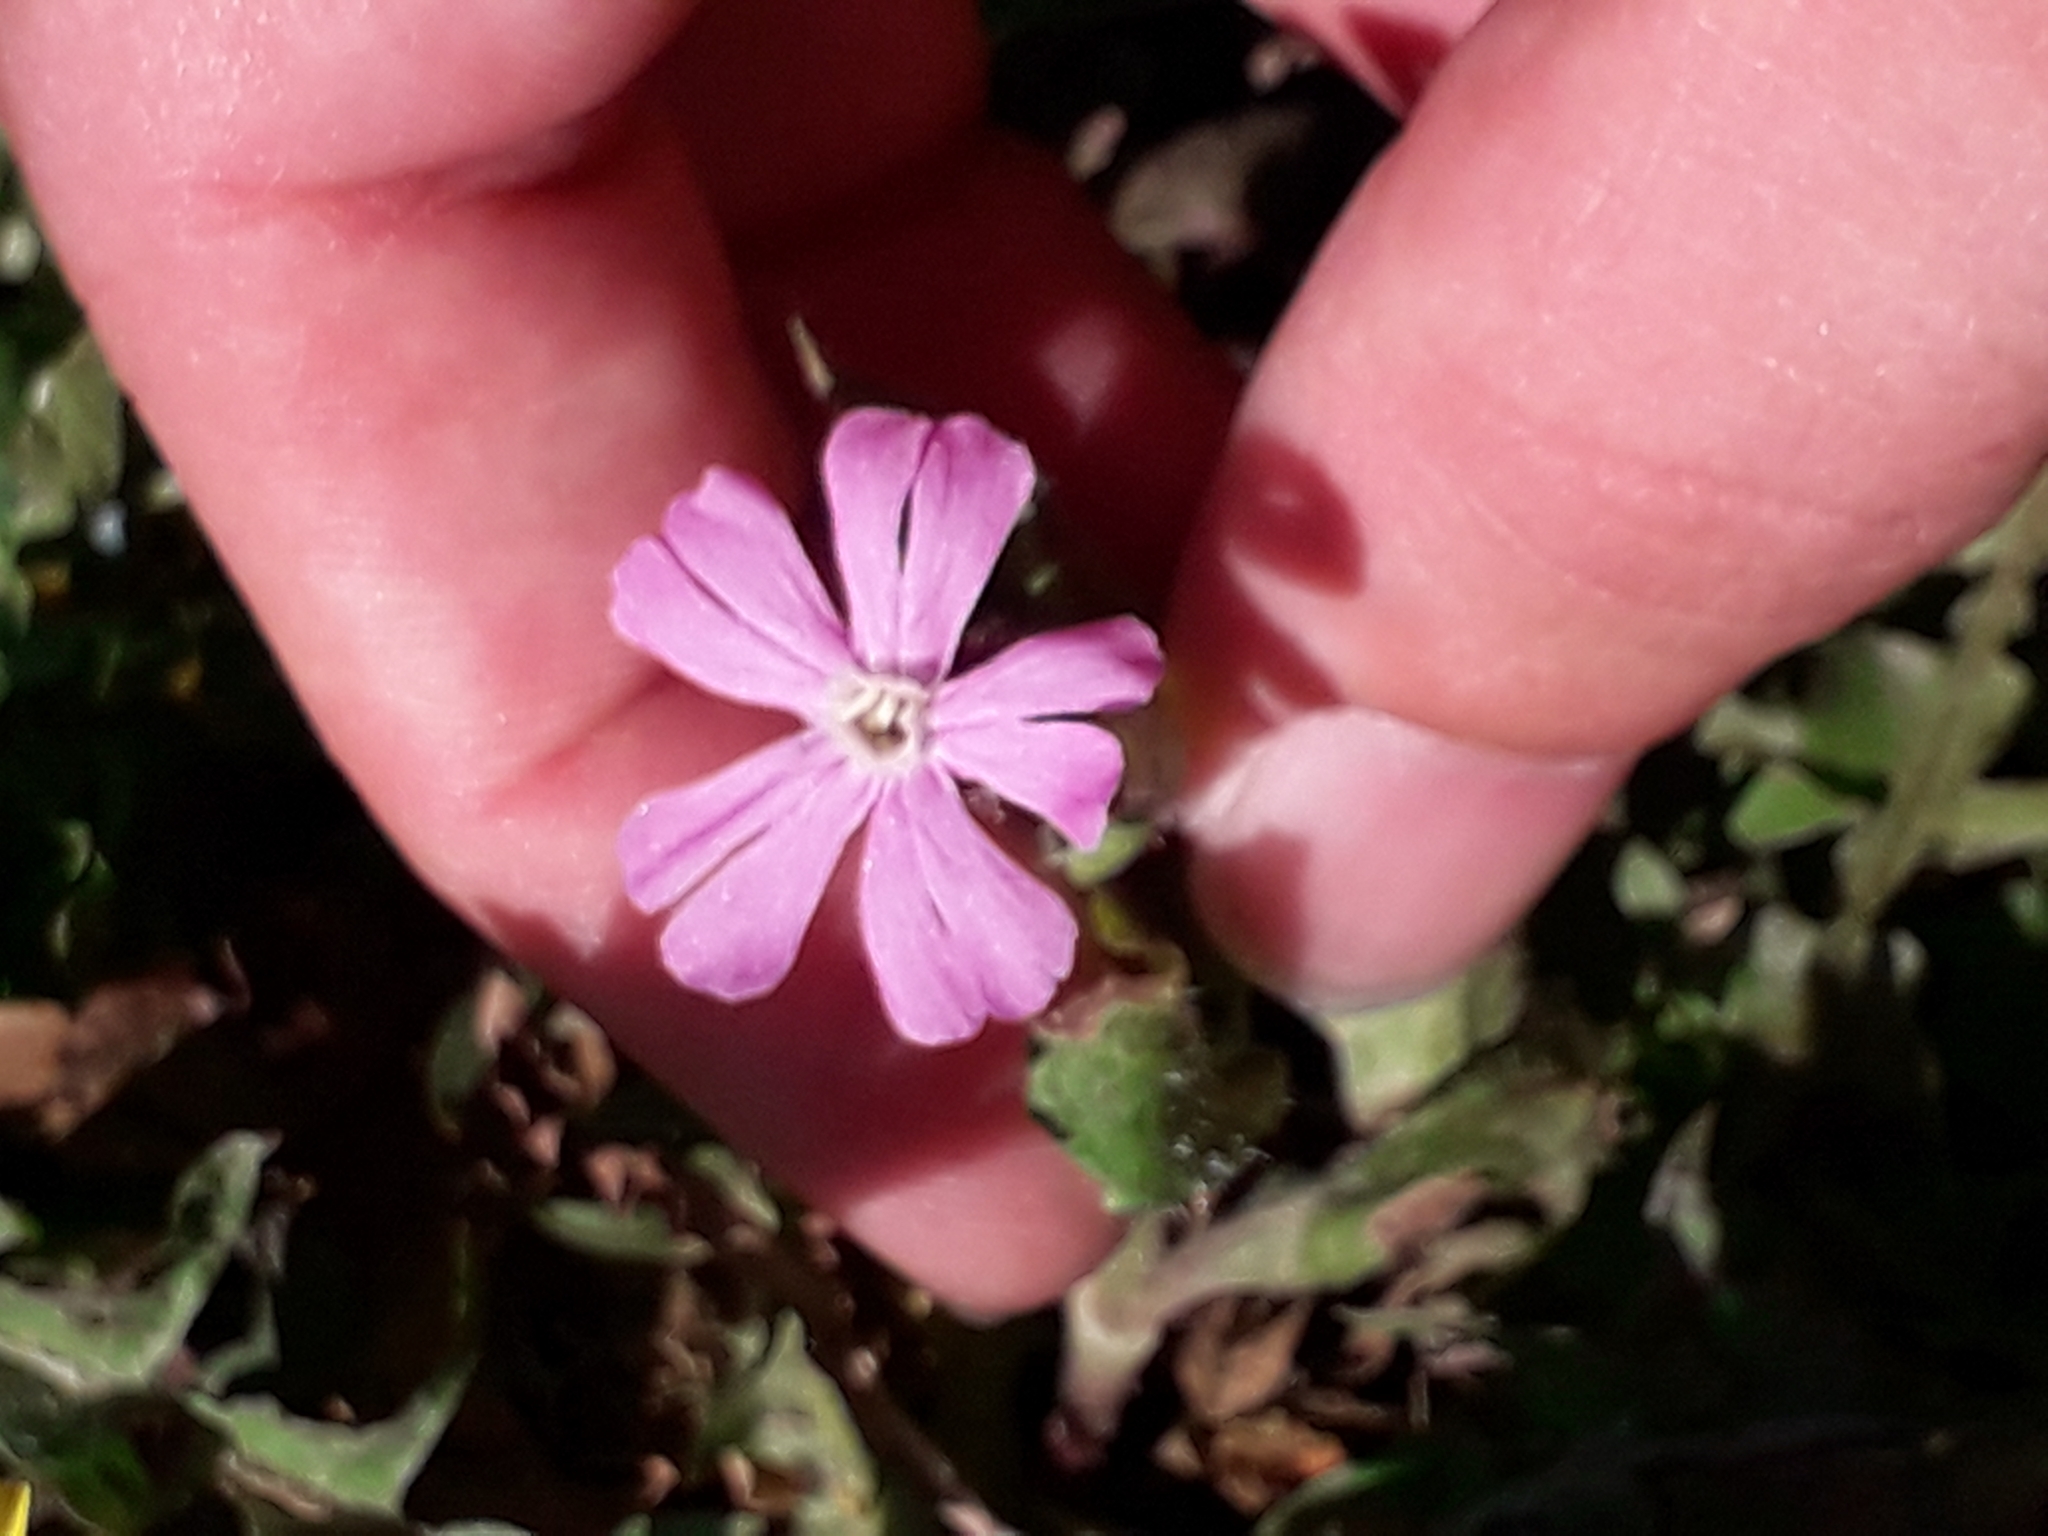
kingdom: Plantae
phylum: Tracheophyta
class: Magnoliopsida
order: Caryophyllales
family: Caryophyllaceae
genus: Silene
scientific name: Silene dioica
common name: Red campion
